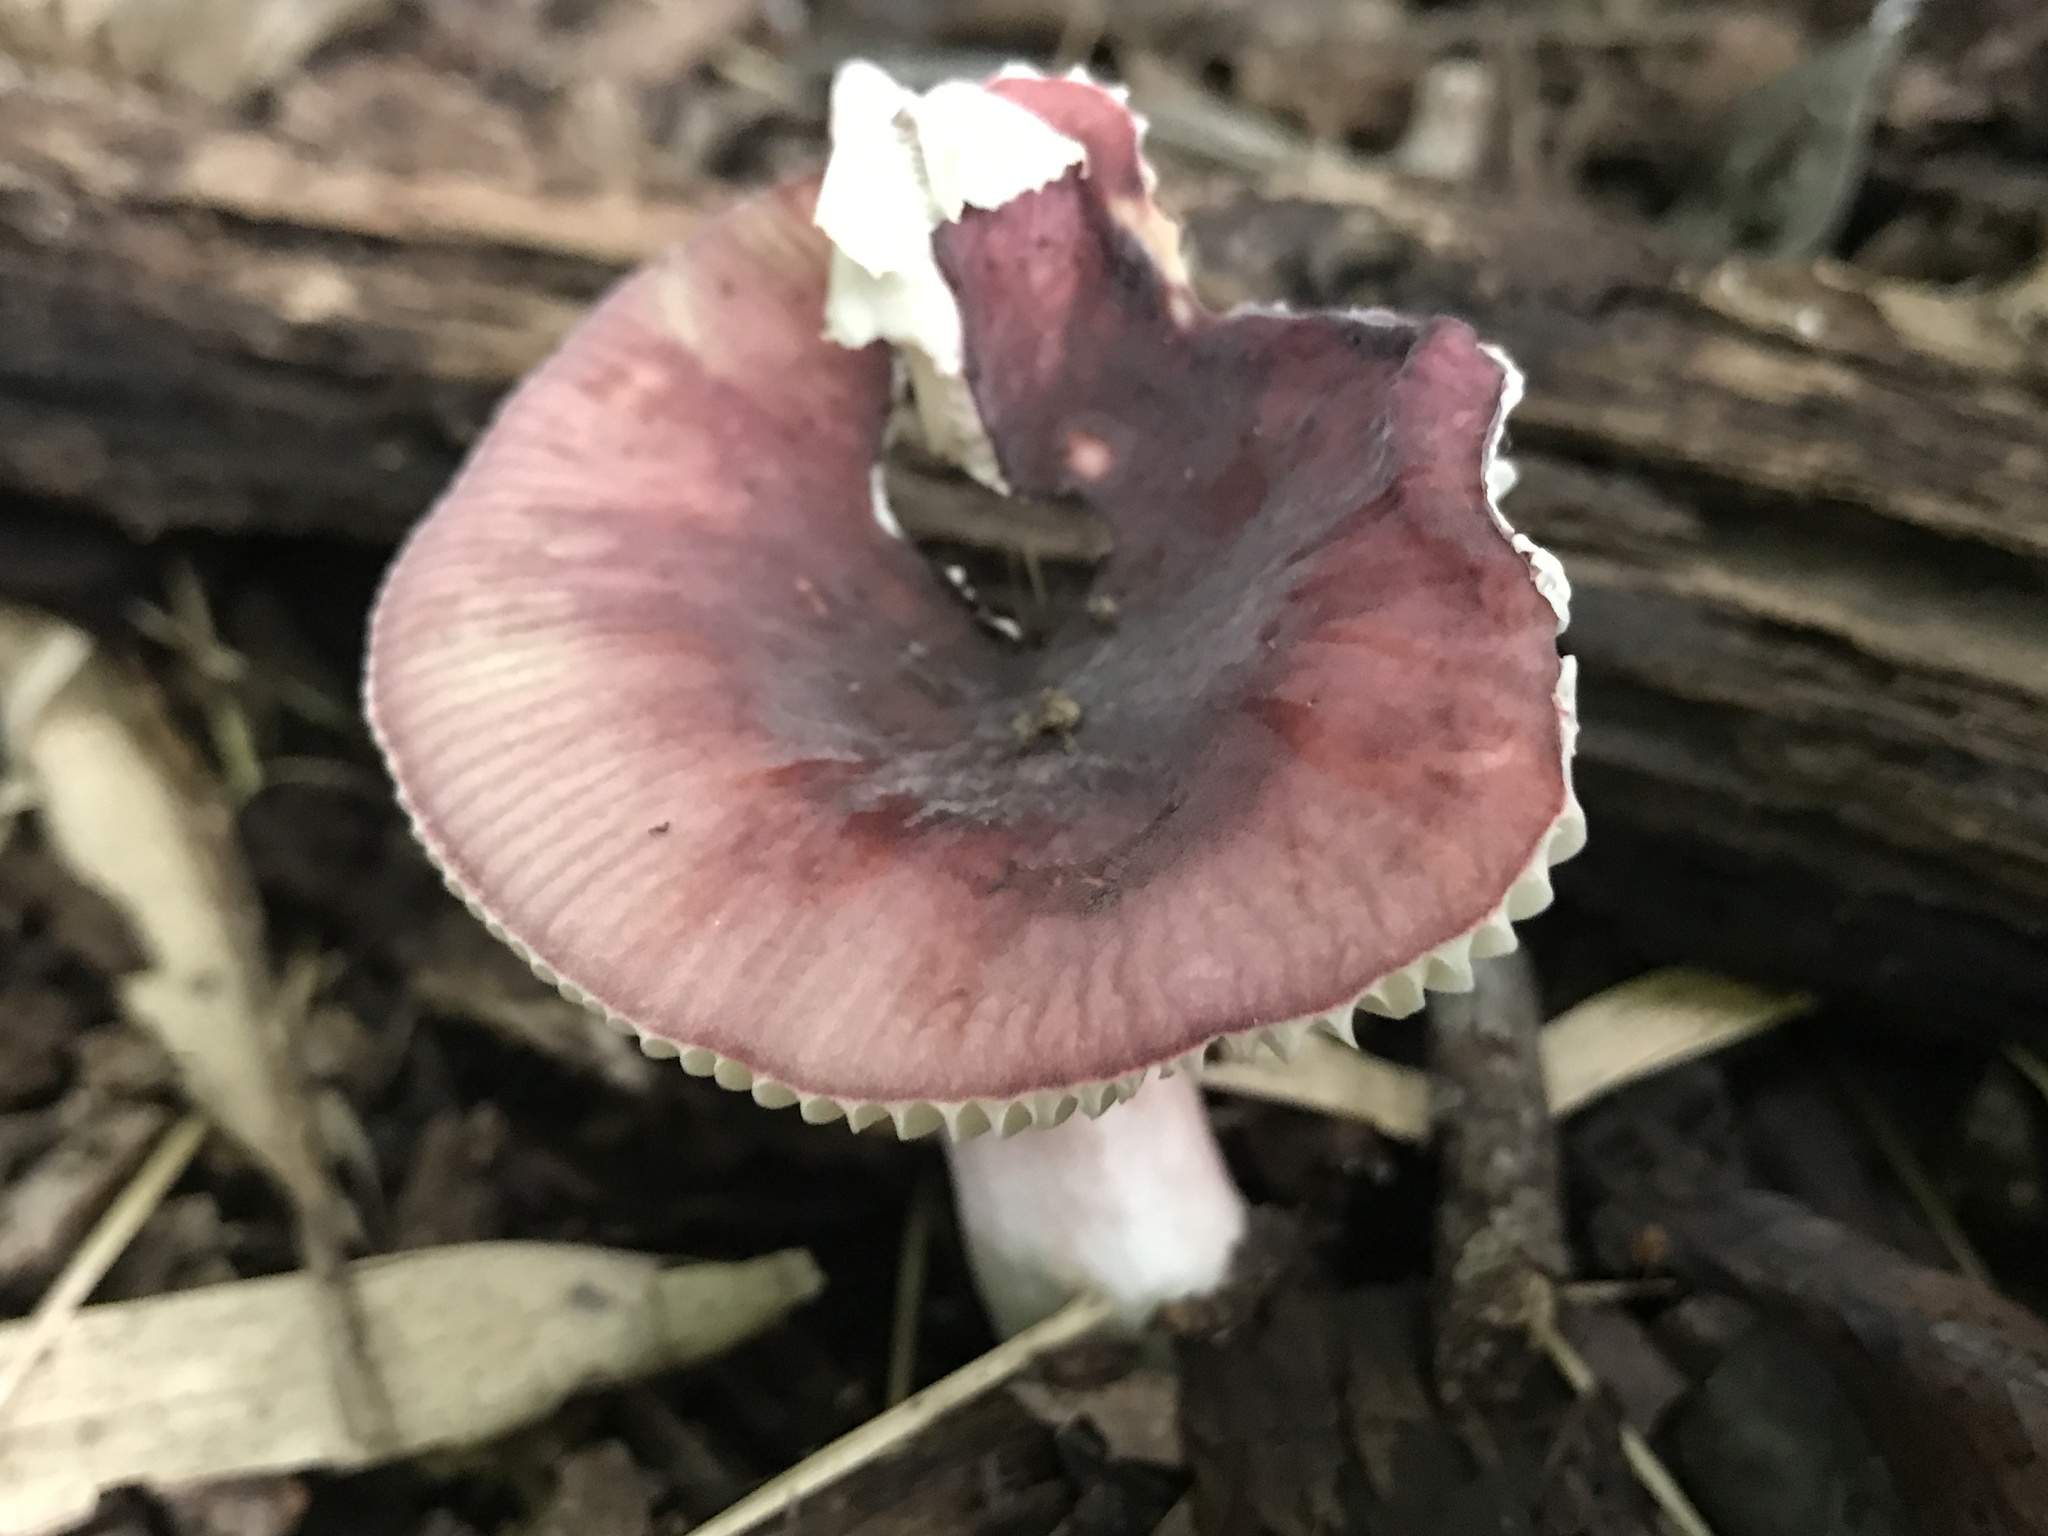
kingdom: Fungi
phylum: Basidiomycota
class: Agaricomycetes
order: Russulales
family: Russulaceae
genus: Russula
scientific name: Russula mariae
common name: Purple-bloom russula
